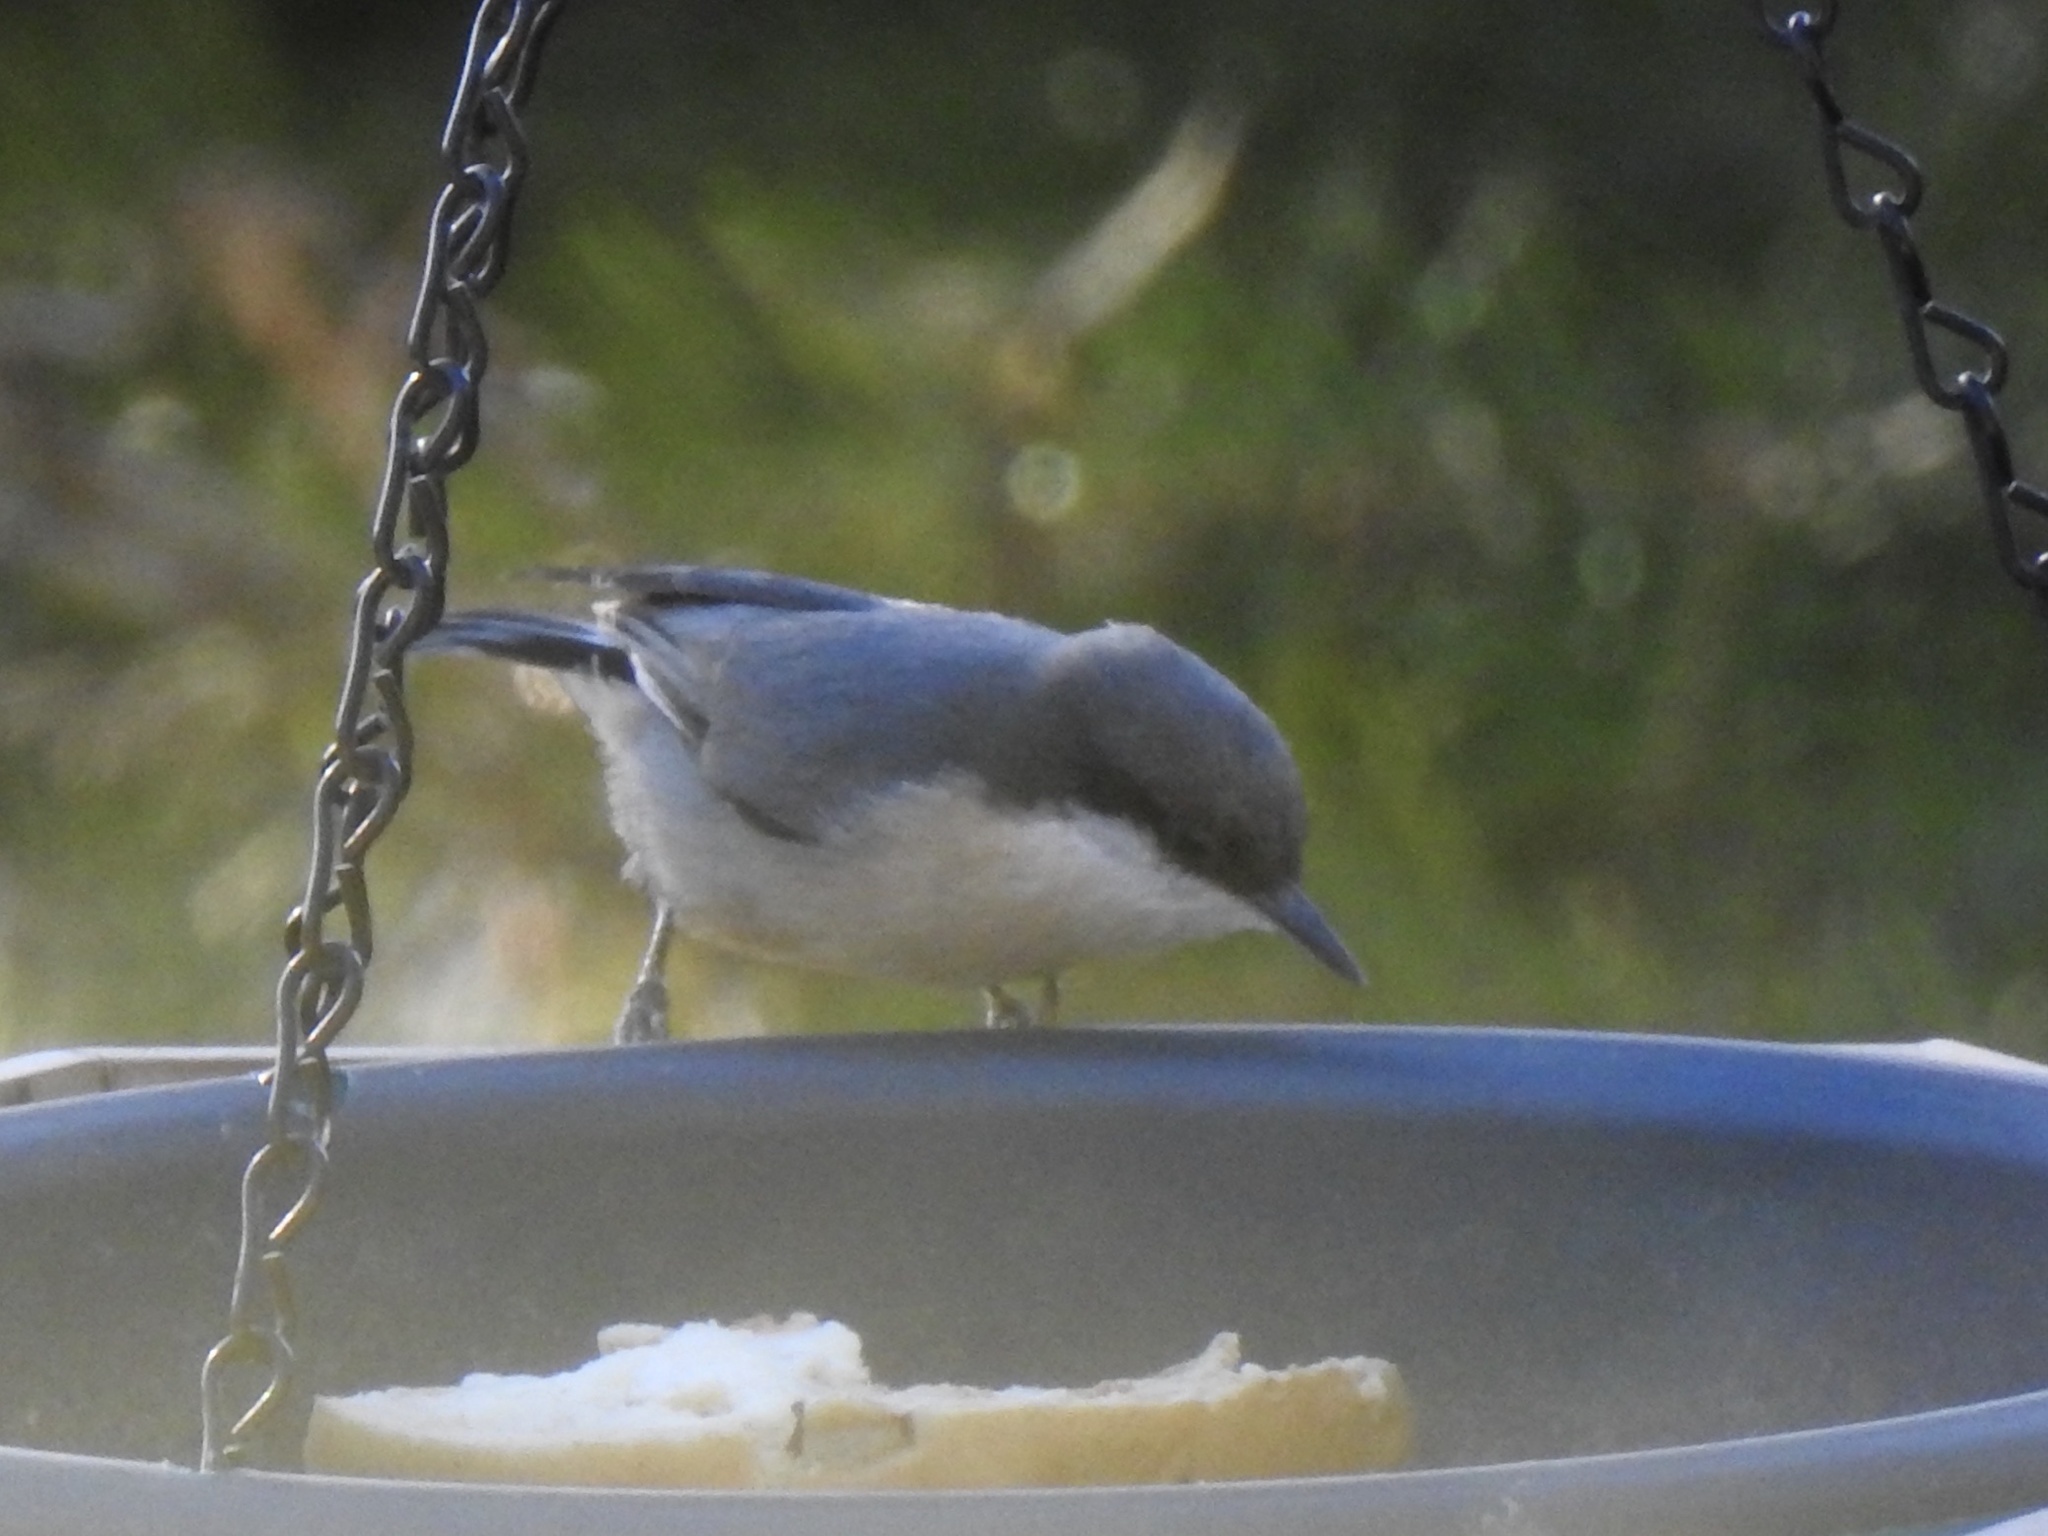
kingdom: Animalia
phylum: Chordata
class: Aves
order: Passeriformes
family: Sittidae
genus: Sitta
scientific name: Sitta pygmaea
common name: Pygmy nuthatch
